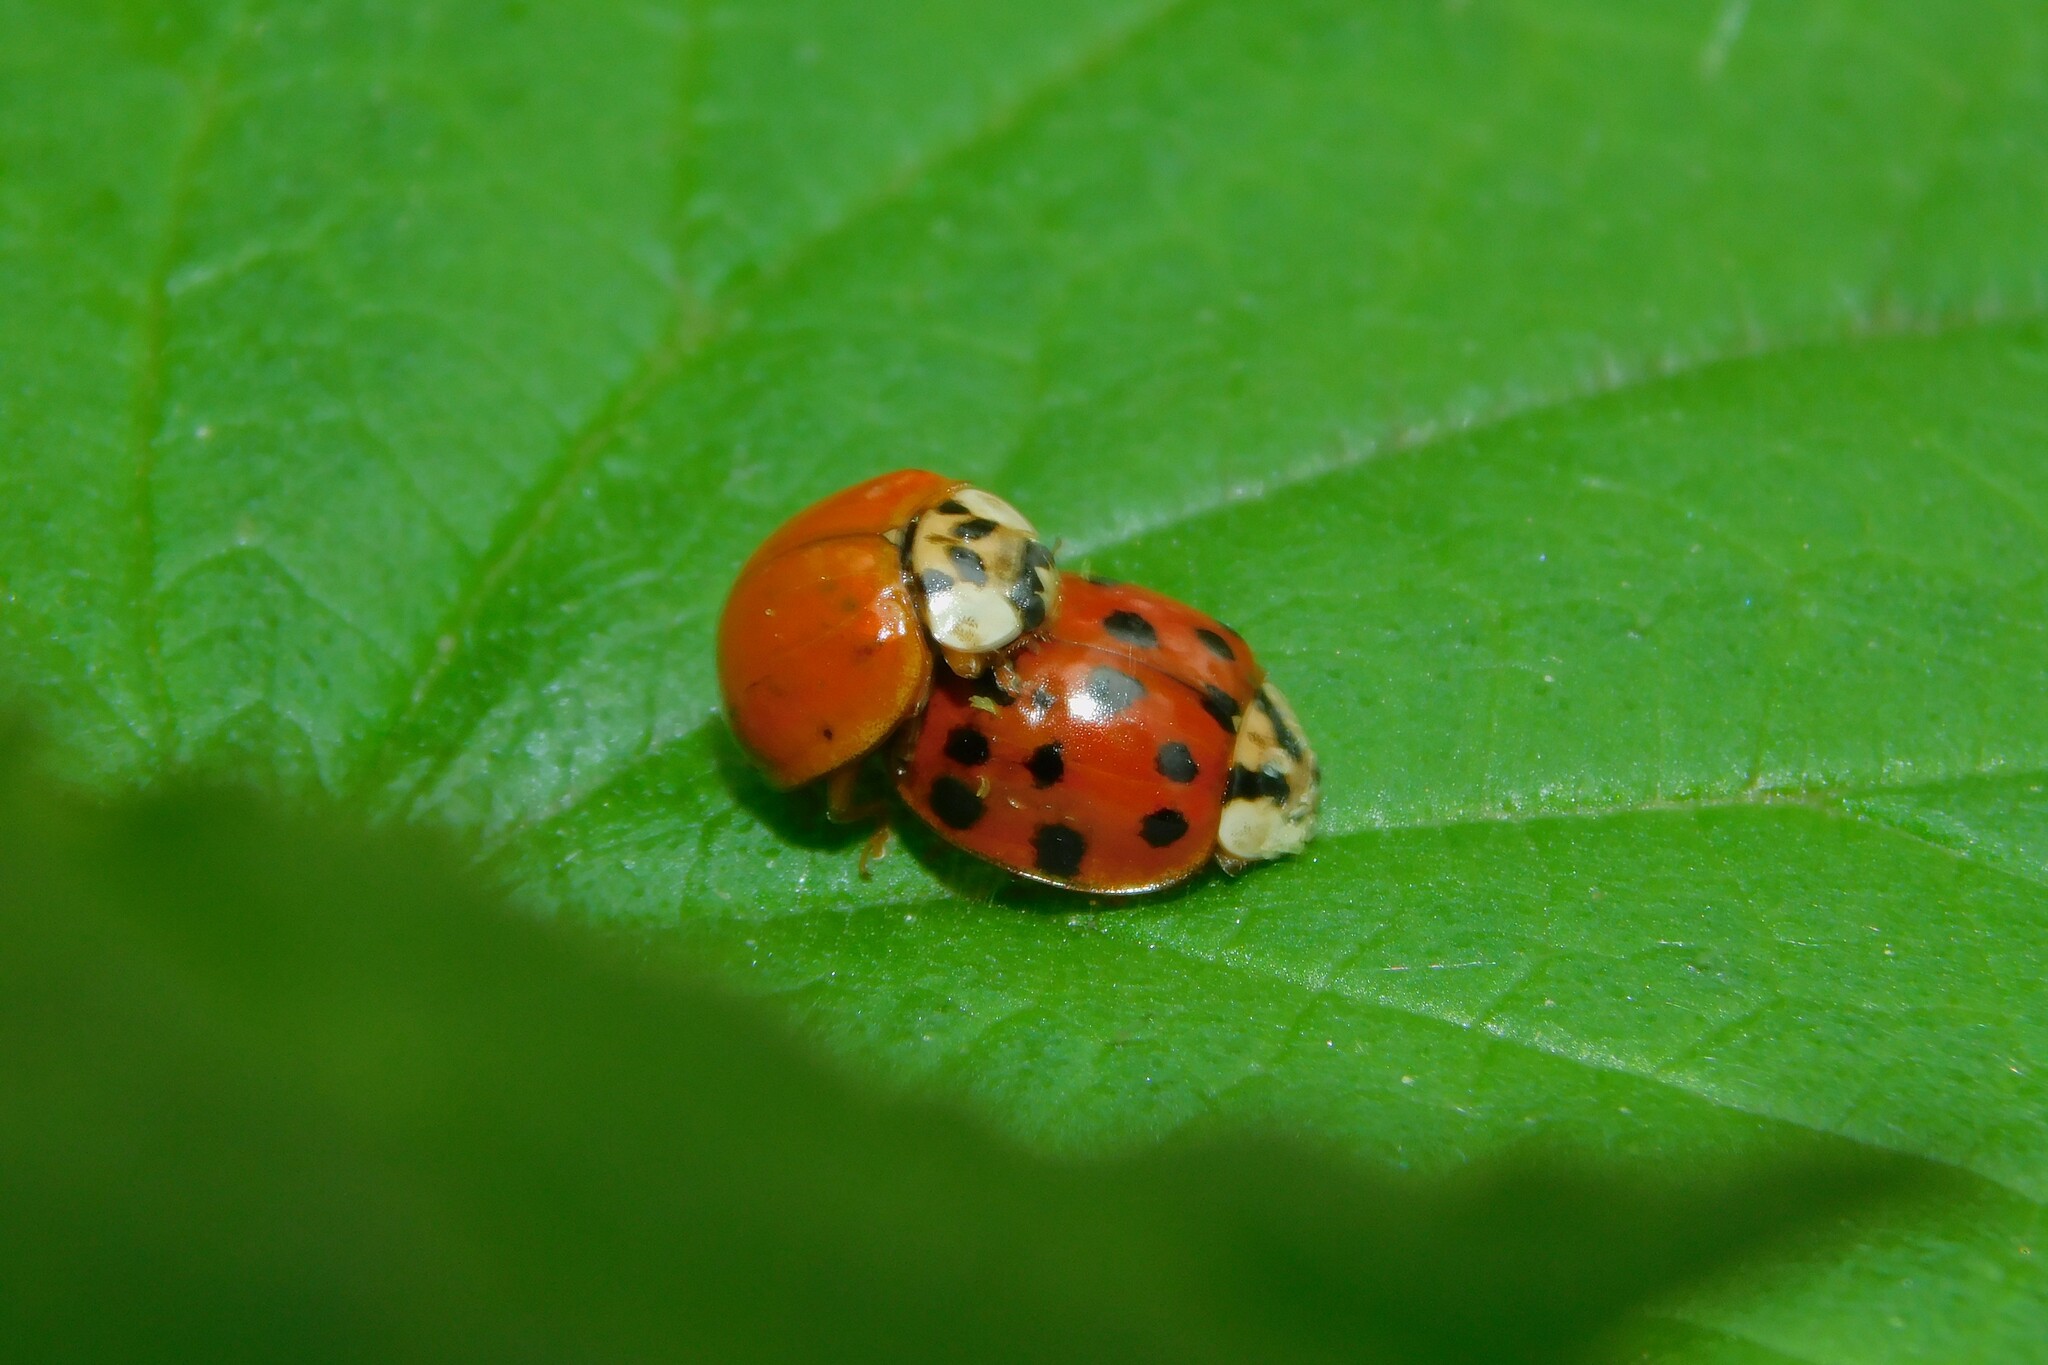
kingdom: Animalia
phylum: Arthropoda
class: Insecta
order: Coleoptera
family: Coccinellidae
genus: Harmonia
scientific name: Harmonia axyridis
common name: Harlequin ladybird
